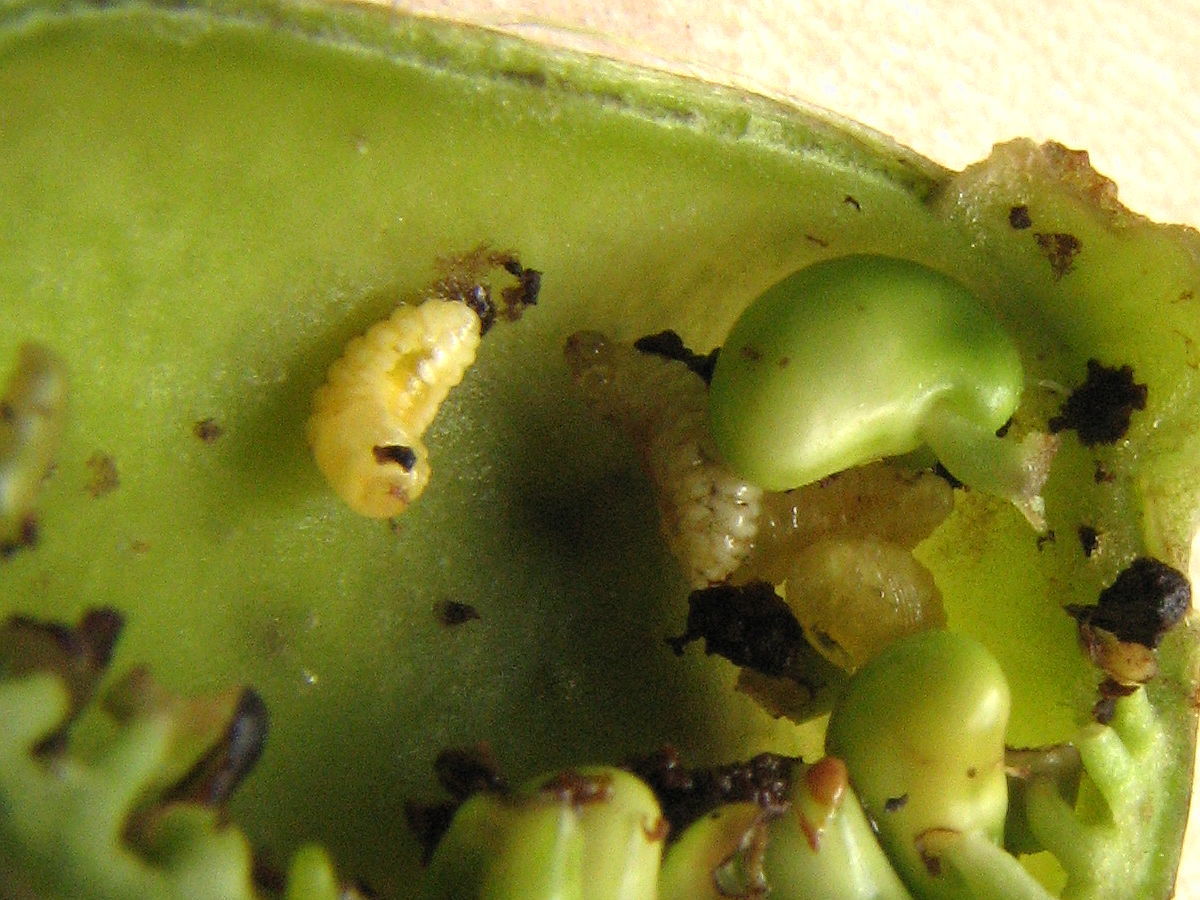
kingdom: Animalia
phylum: Arthropoda
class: Insecta
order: Coleoptera
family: Brentidae
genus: Trichapion
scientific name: Trichapion
